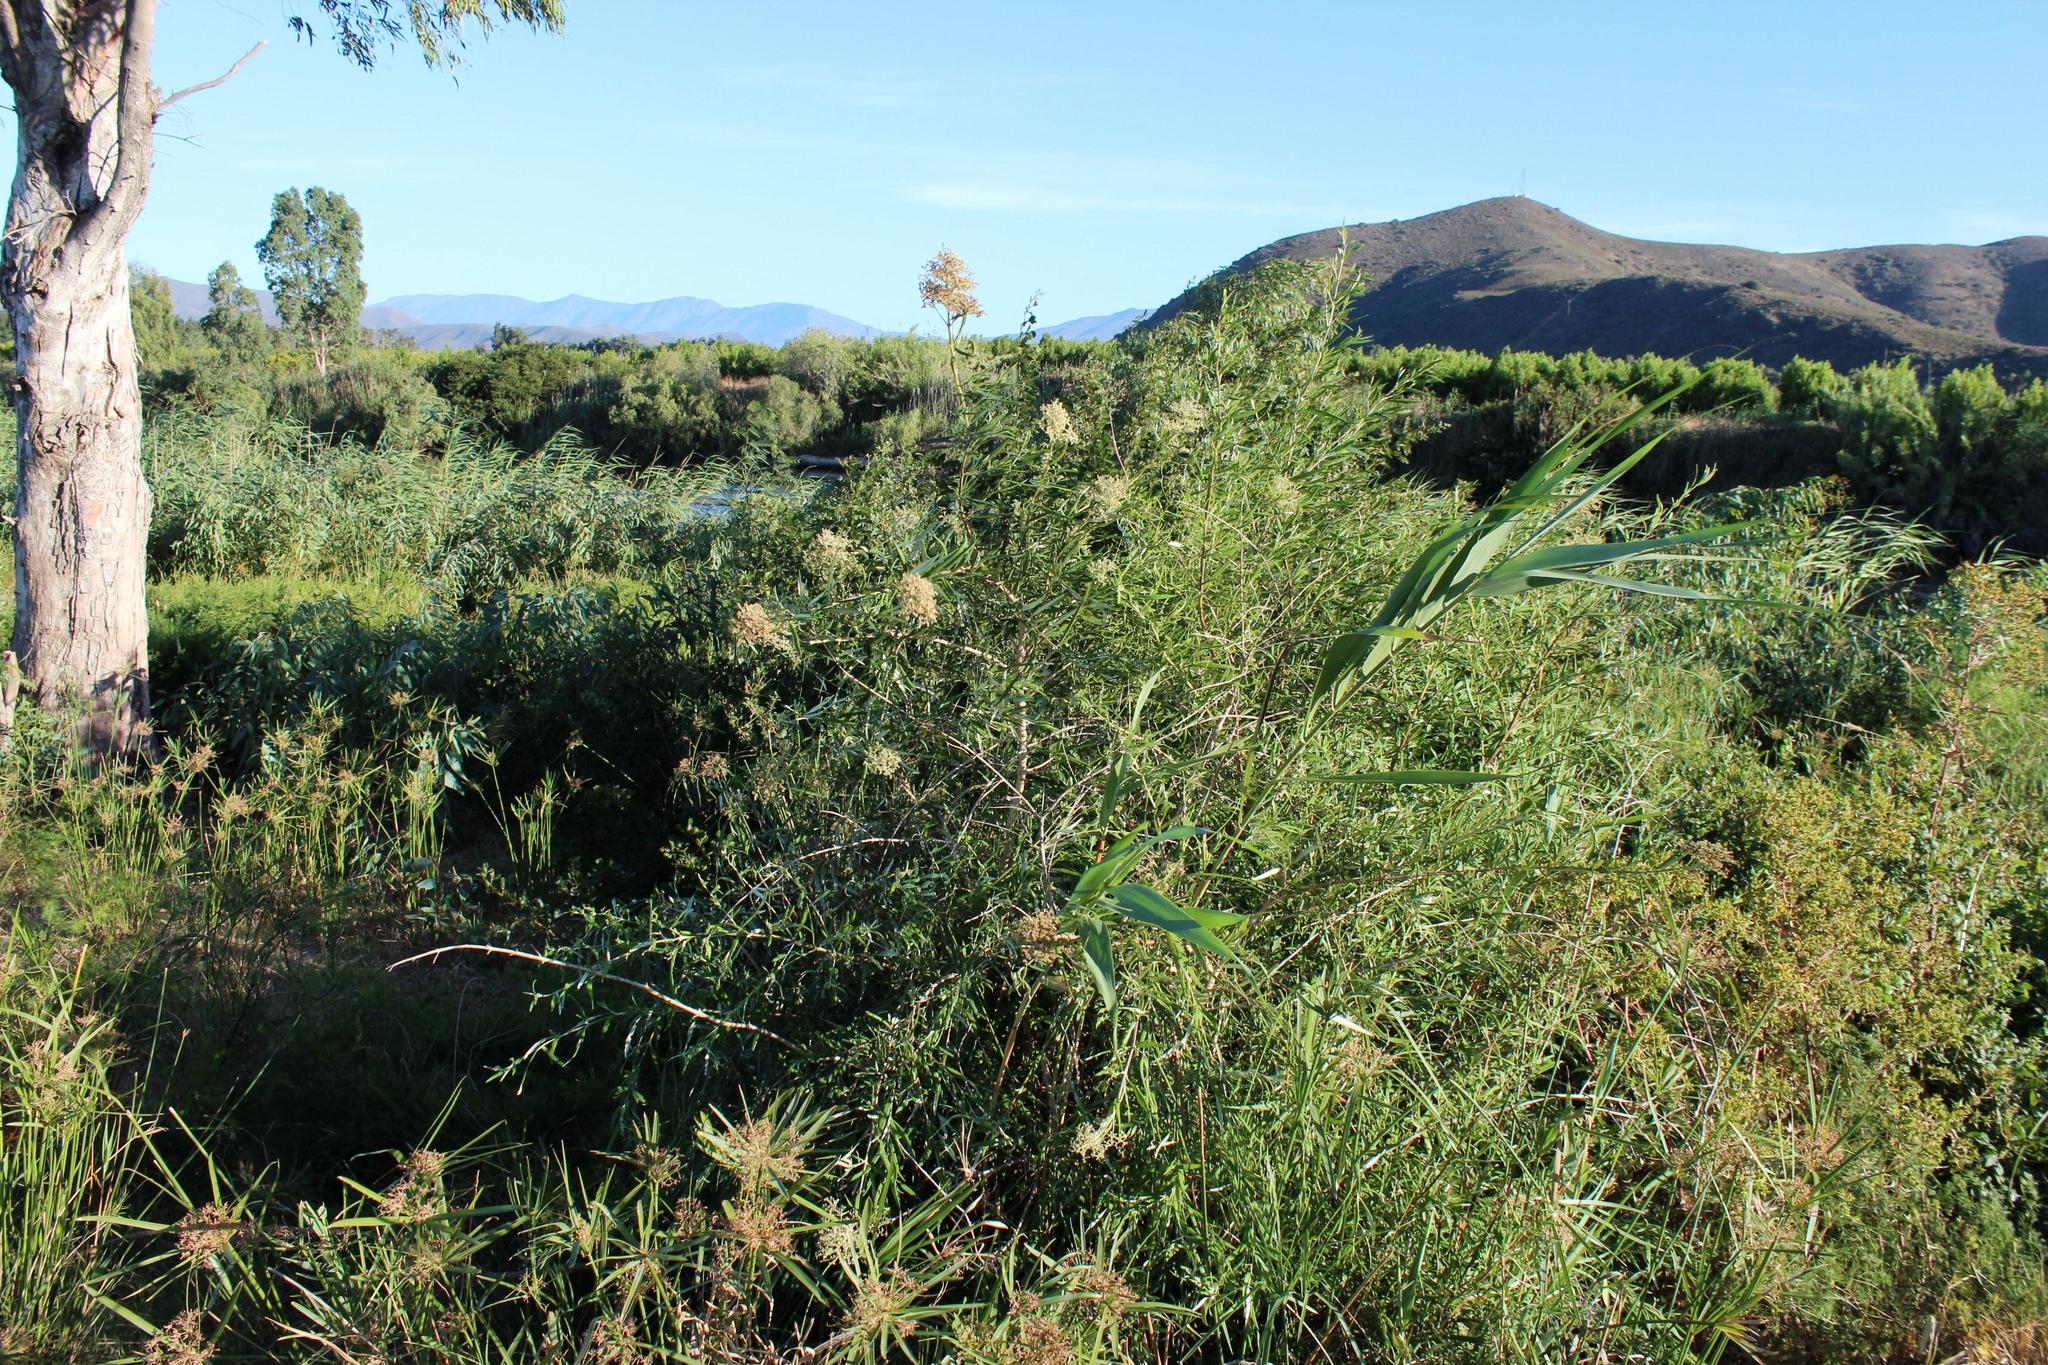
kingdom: Plantae
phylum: Tracheophyta
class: Magnoliopsida
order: Lamiales
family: Scrophulariaceae
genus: Buddleja
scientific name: Buddleja saligna
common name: False olive
